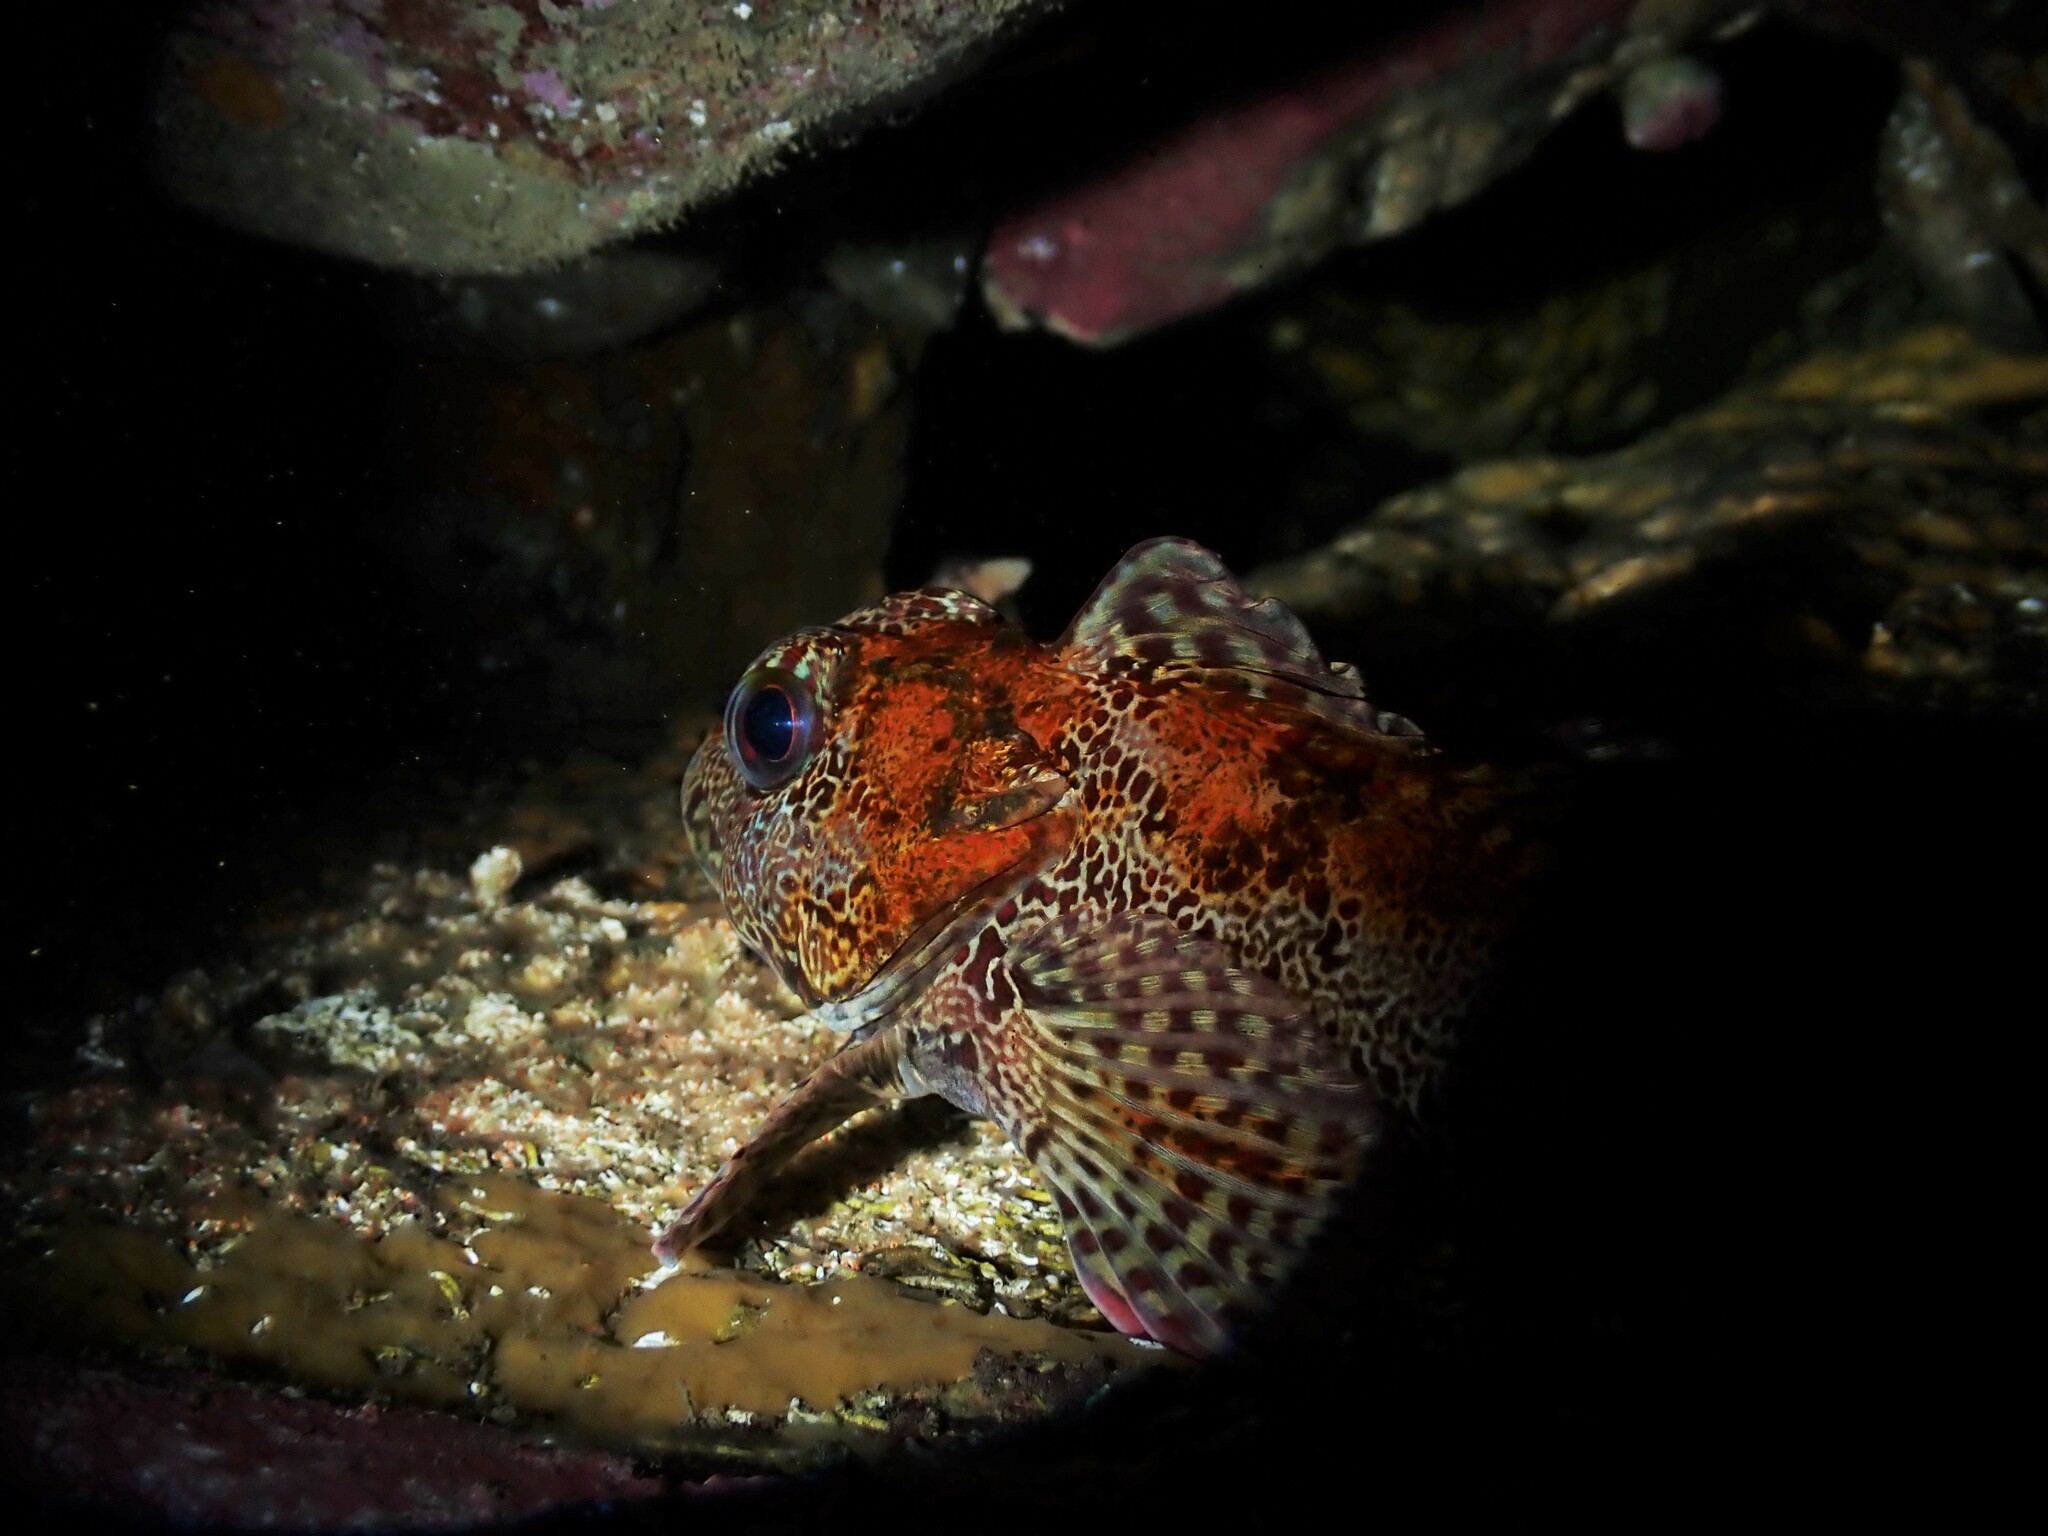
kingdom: Animalia
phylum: Chordata
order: Perciformes
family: Bovichtidae
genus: Bovichtus
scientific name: Bovichtus variegatus
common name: Thornfish
